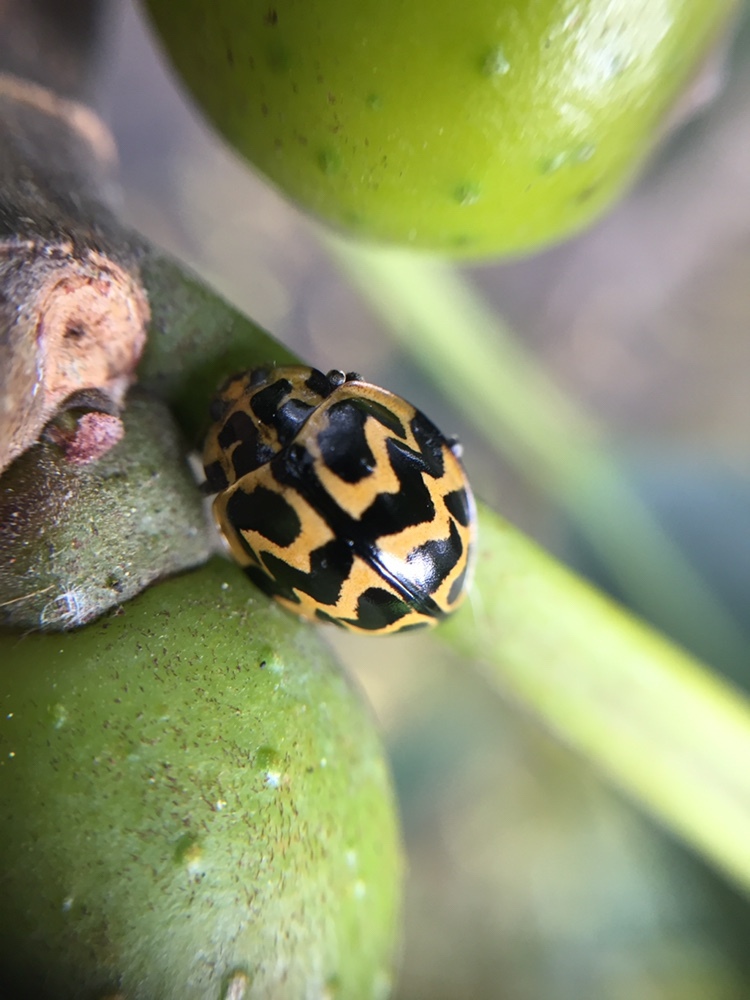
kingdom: Animalia
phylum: Arthropoda
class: Insecta
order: Coleoptera
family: Coccinellidae
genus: Cleobora
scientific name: Cleobora
